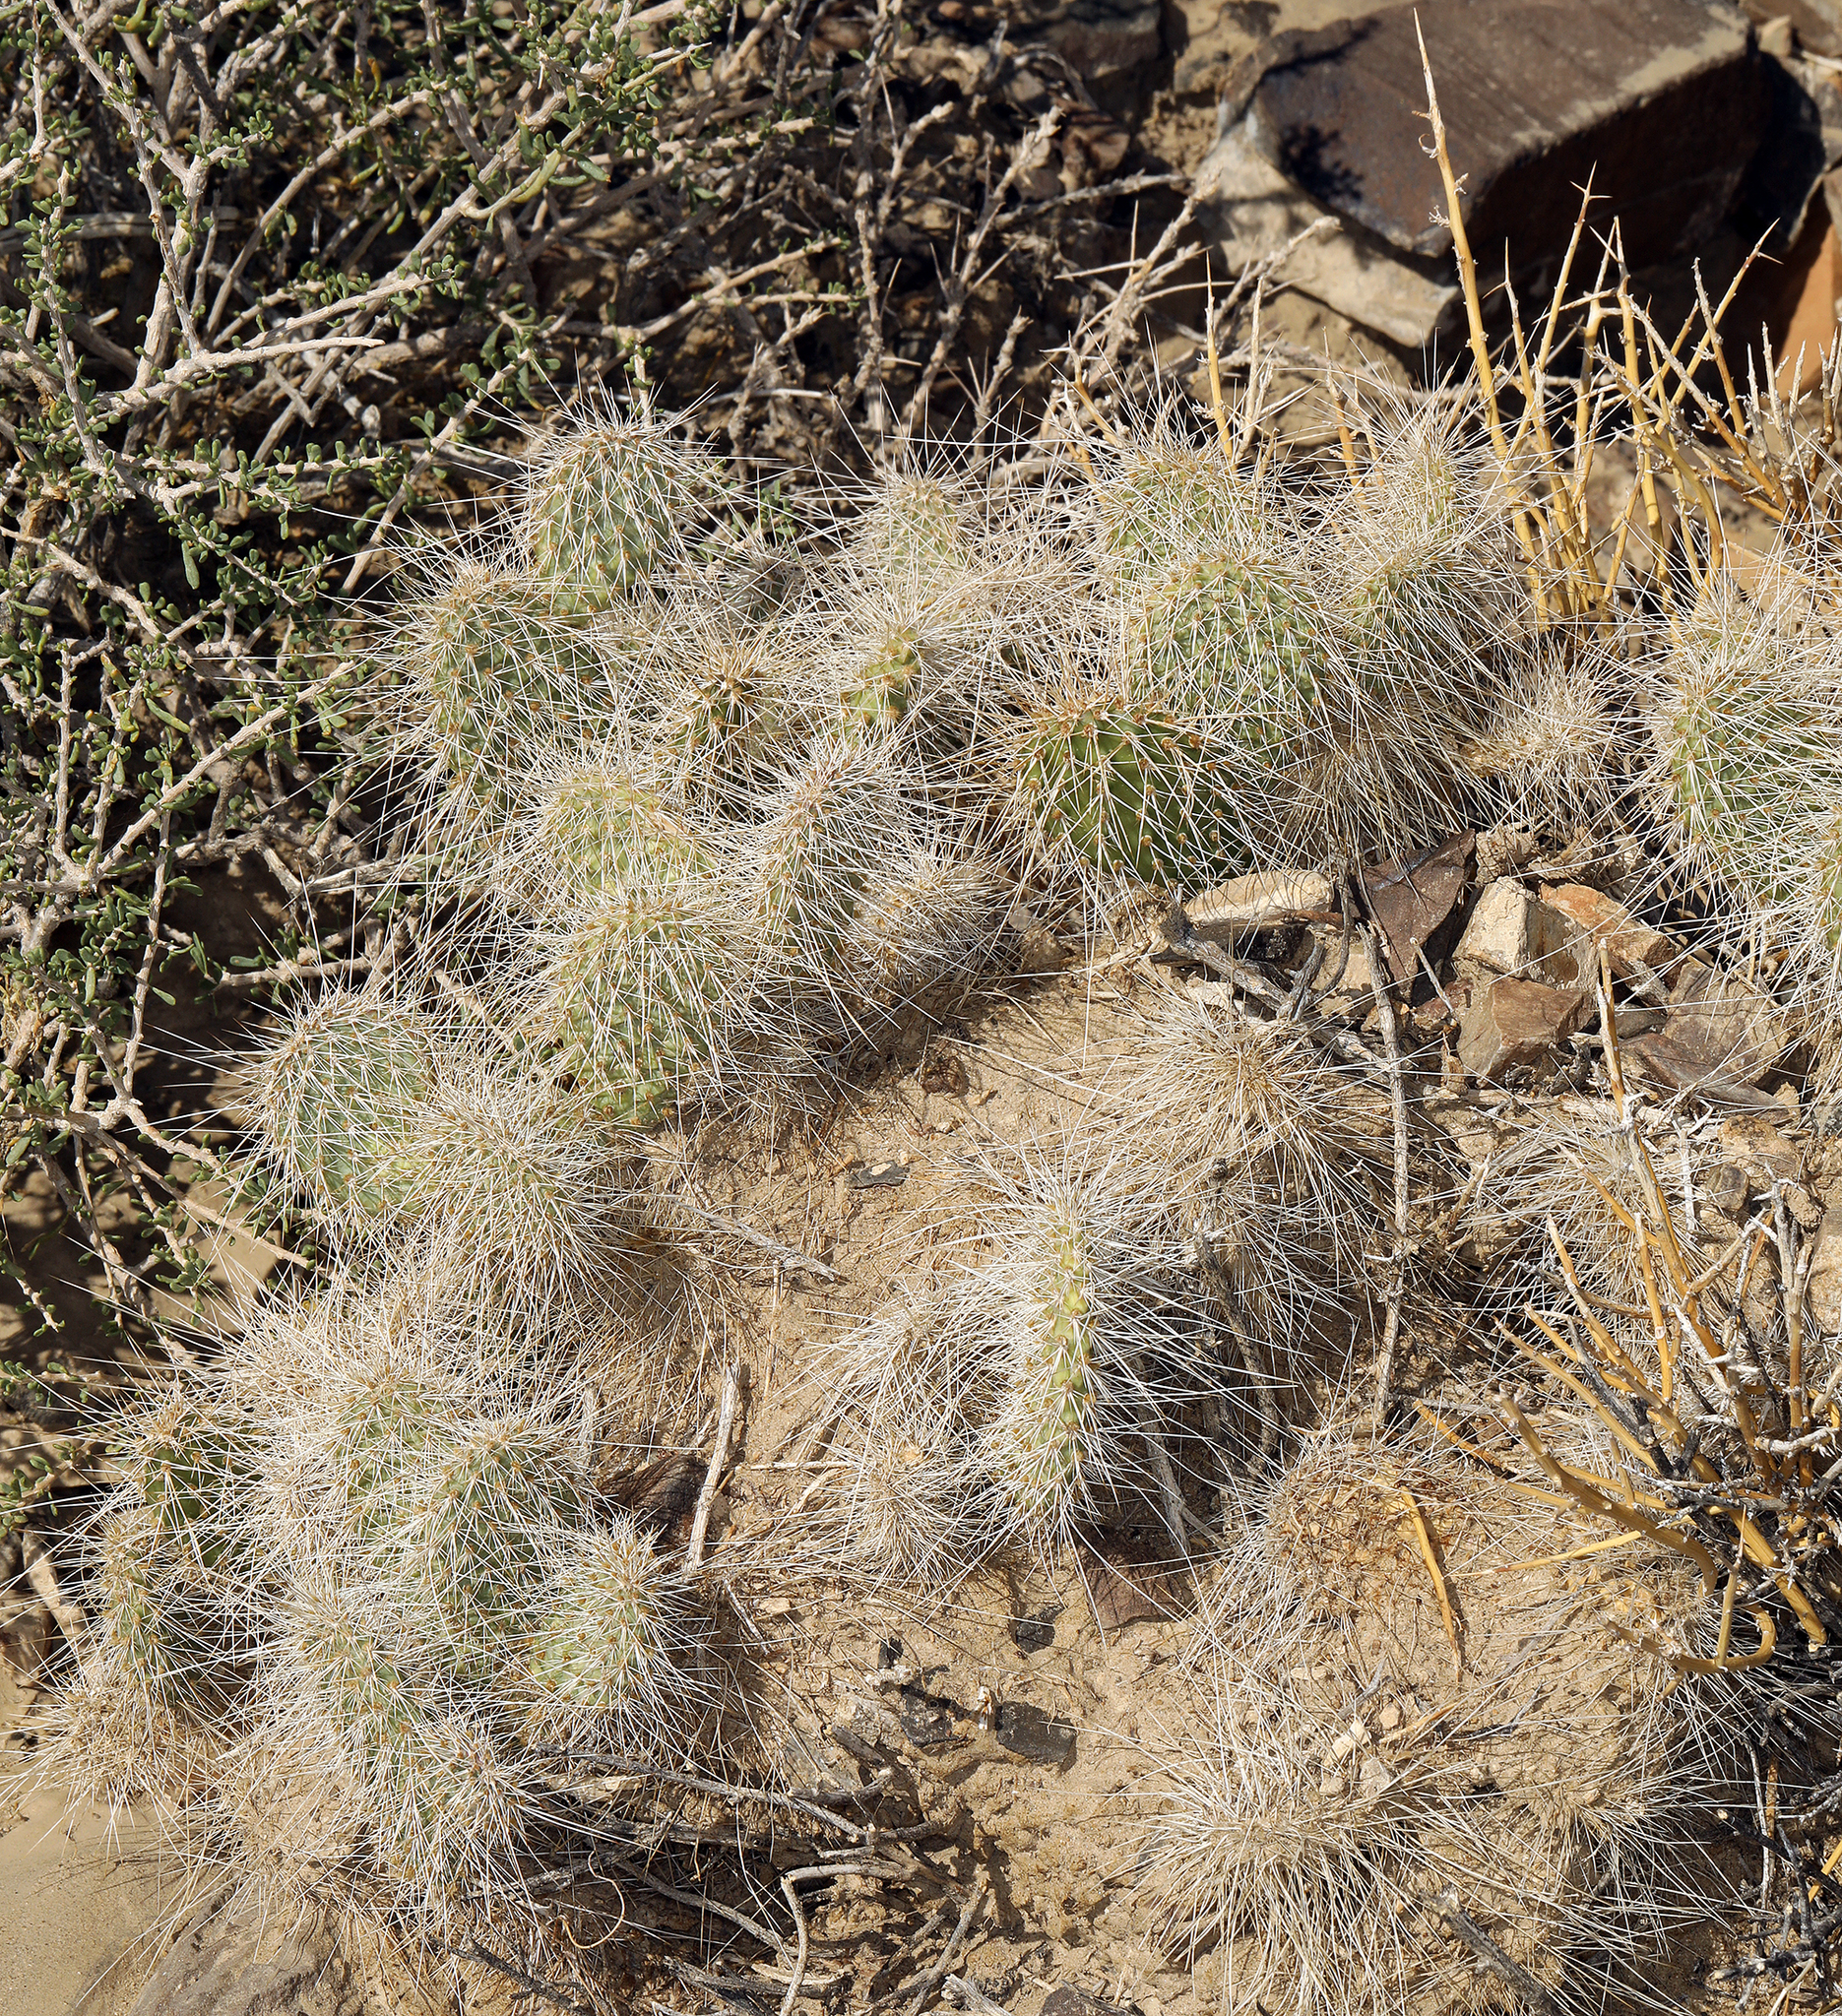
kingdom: Plantae
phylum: Tracheophyta
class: Magnoliopsida
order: Caryophyllales
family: Cactaceae
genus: Opuntia
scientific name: Opuntia polyacantha
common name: Plains prickly-pear
